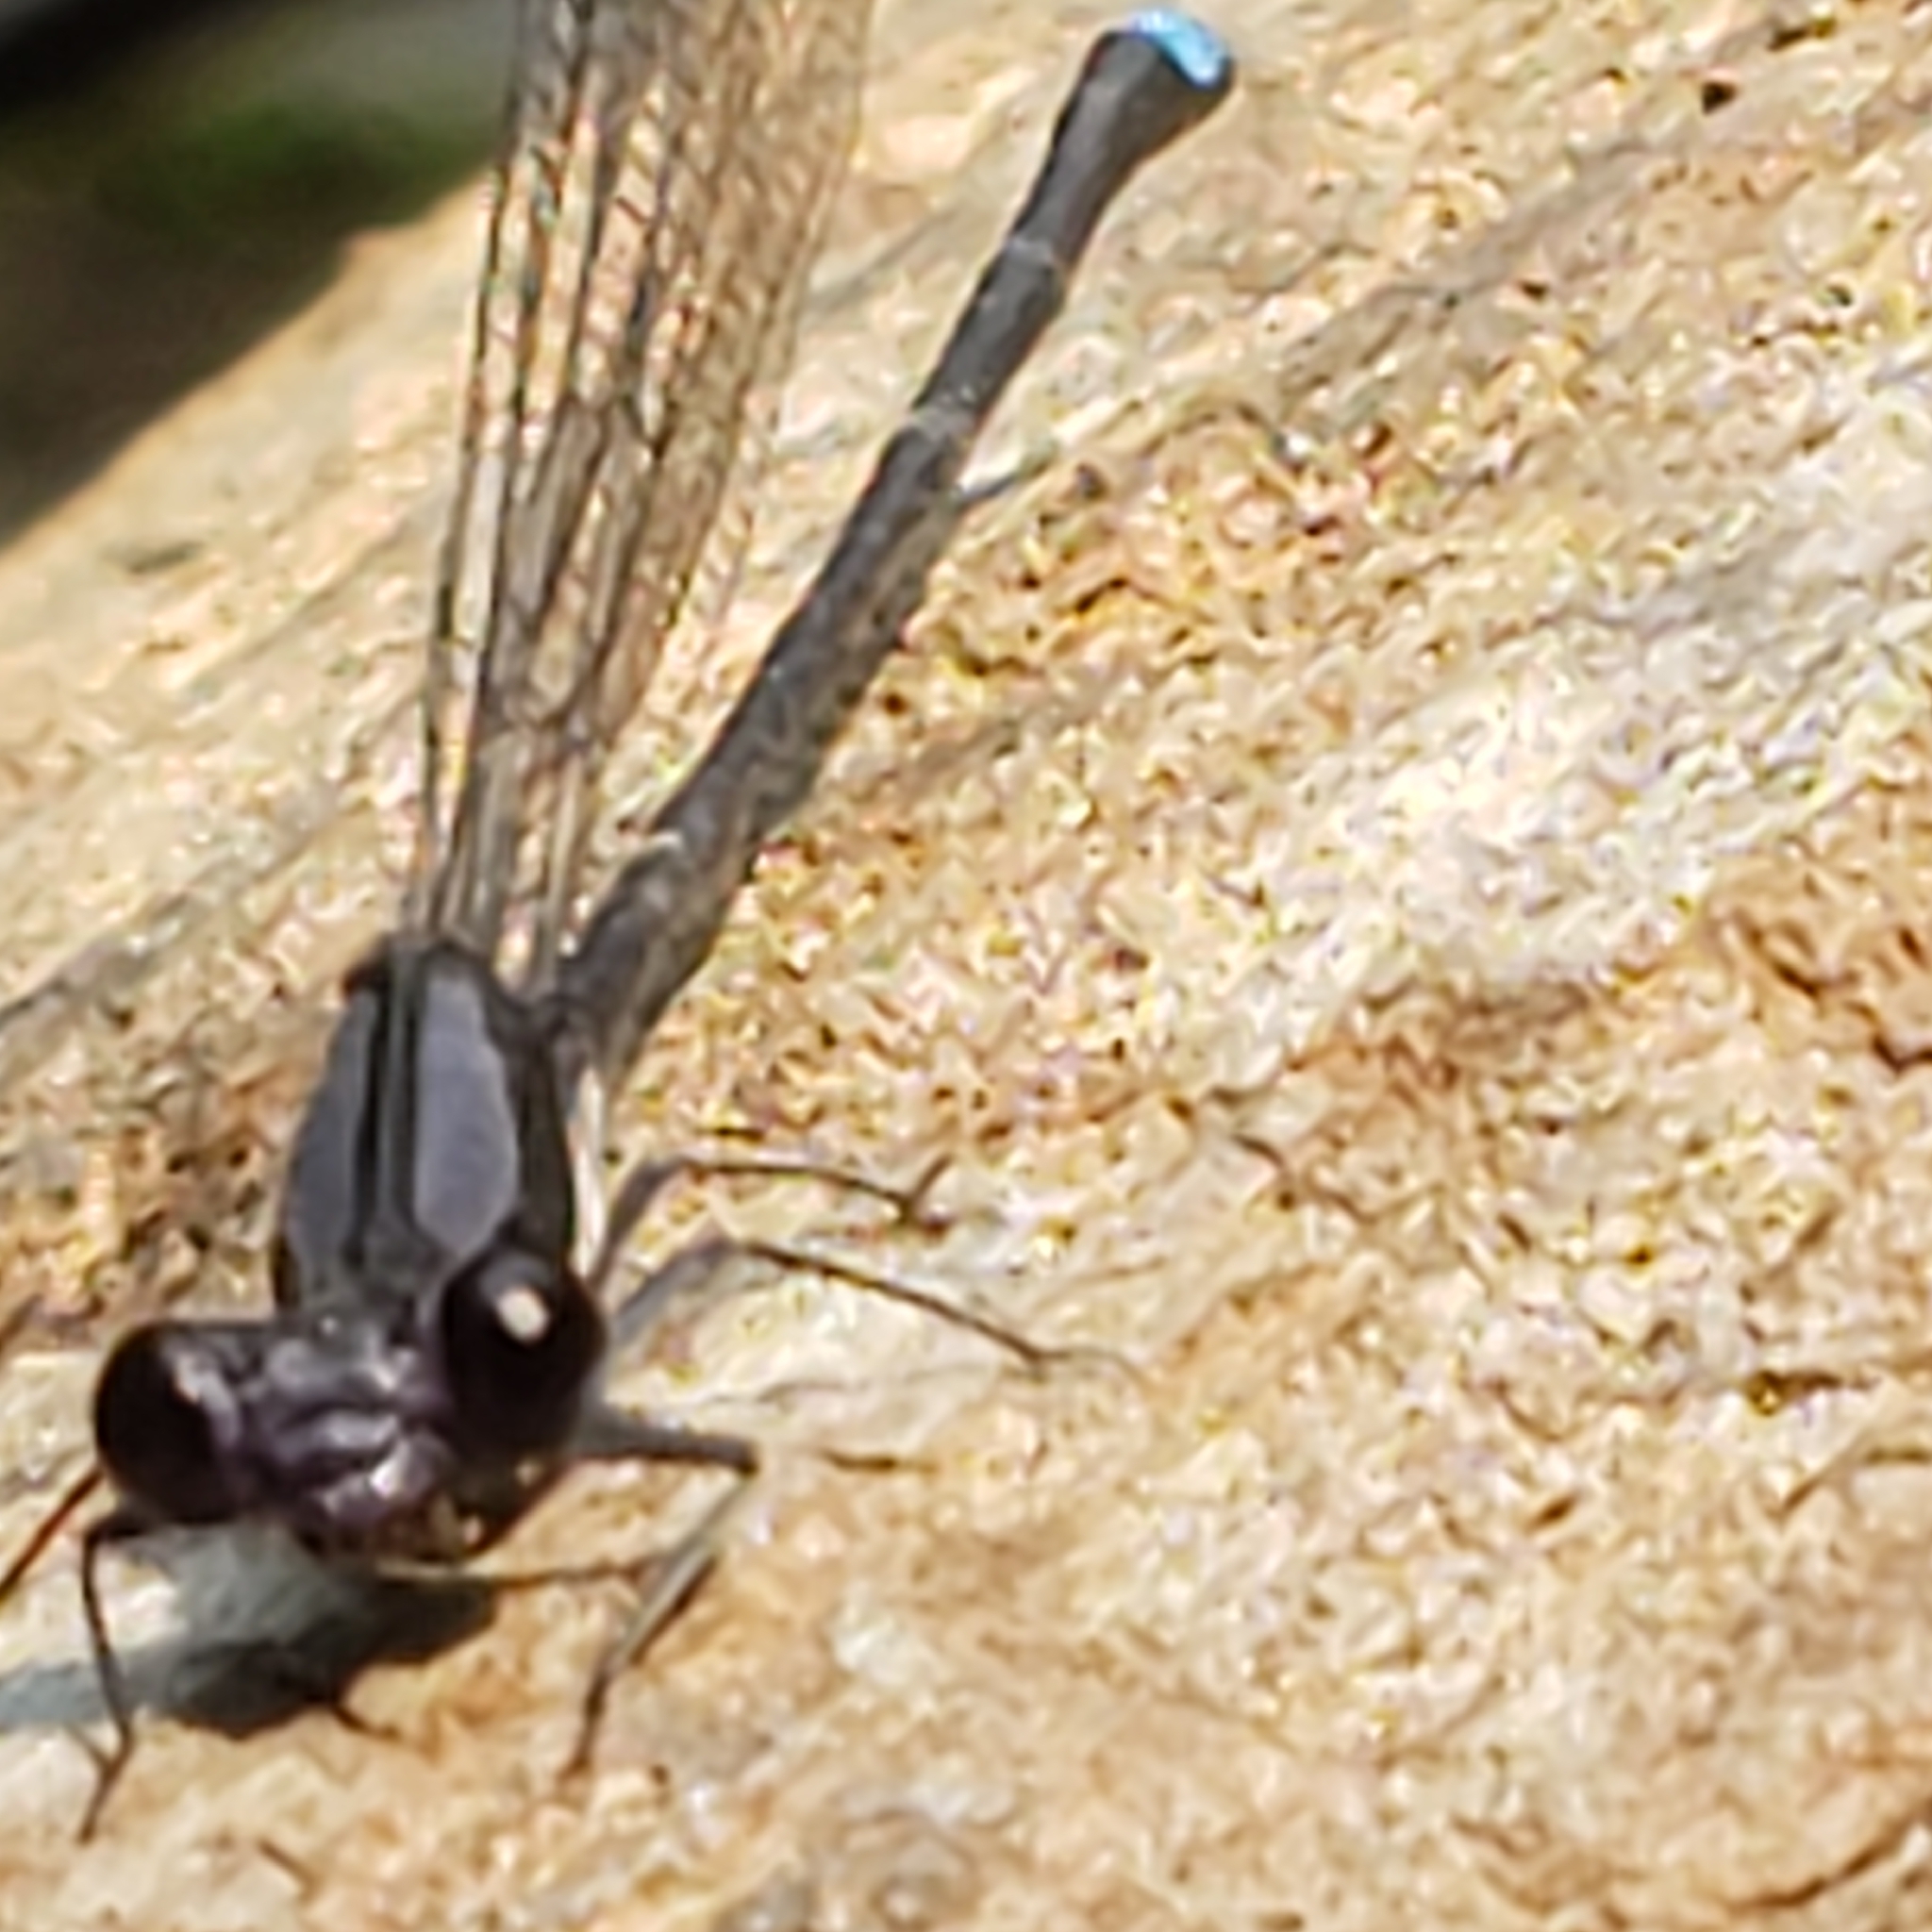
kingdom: Animalia
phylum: Arthropoda
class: Insecta
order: Odonata
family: Coenagrionidae
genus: Argia
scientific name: Argia tibialis
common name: Blue-tipped dancer
